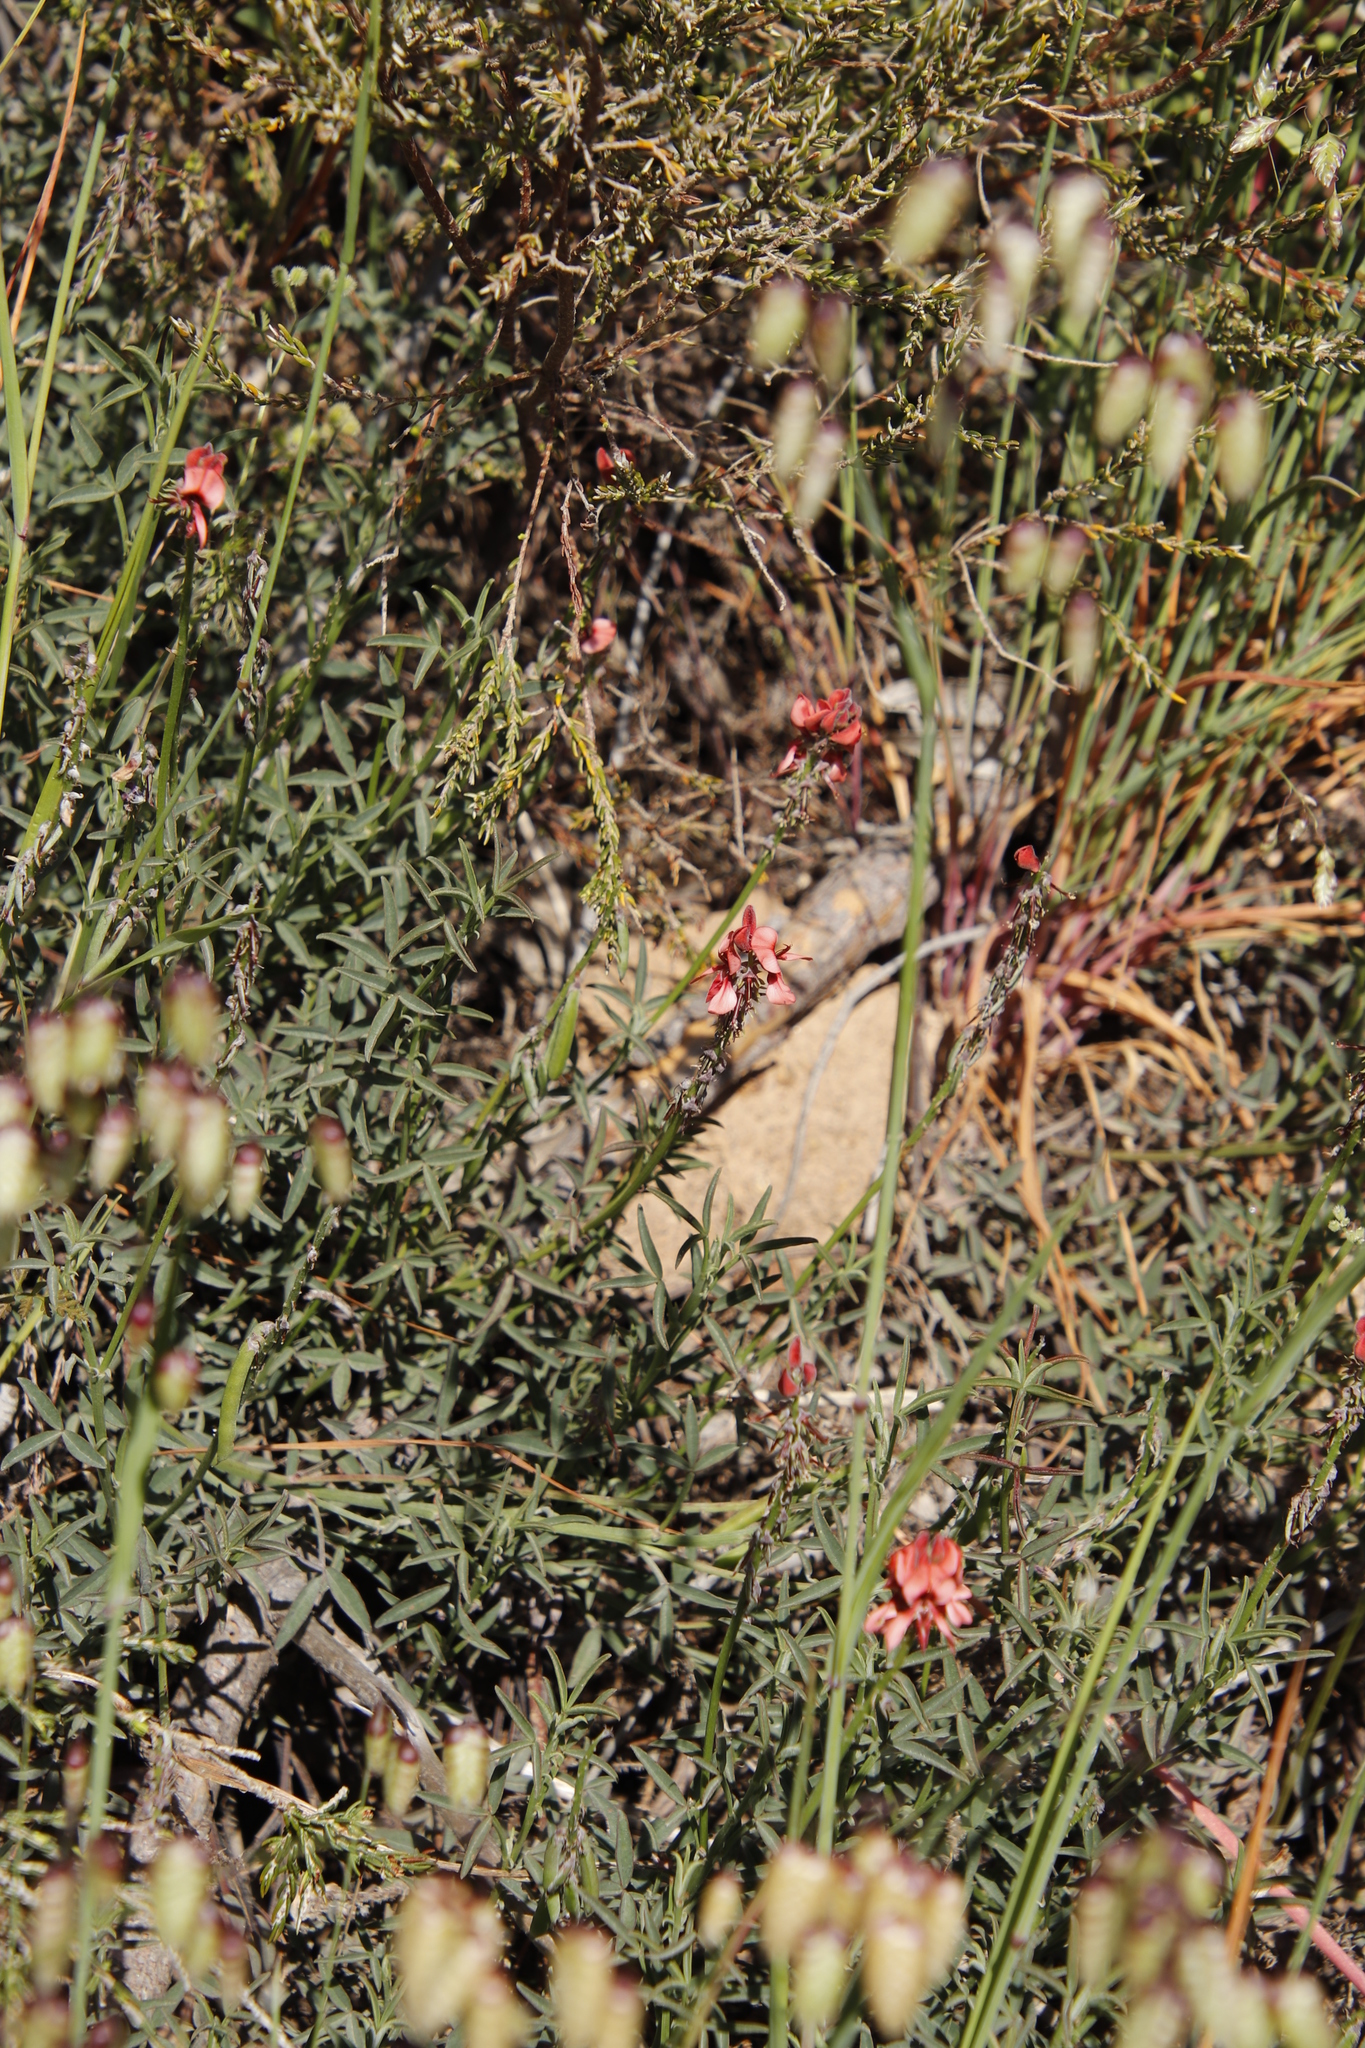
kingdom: Plantae
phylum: Tracheophyta
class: Magnoliopsida
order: Fabales
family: Fabaceae
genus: Indigofera
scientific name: Indigofera complanata
